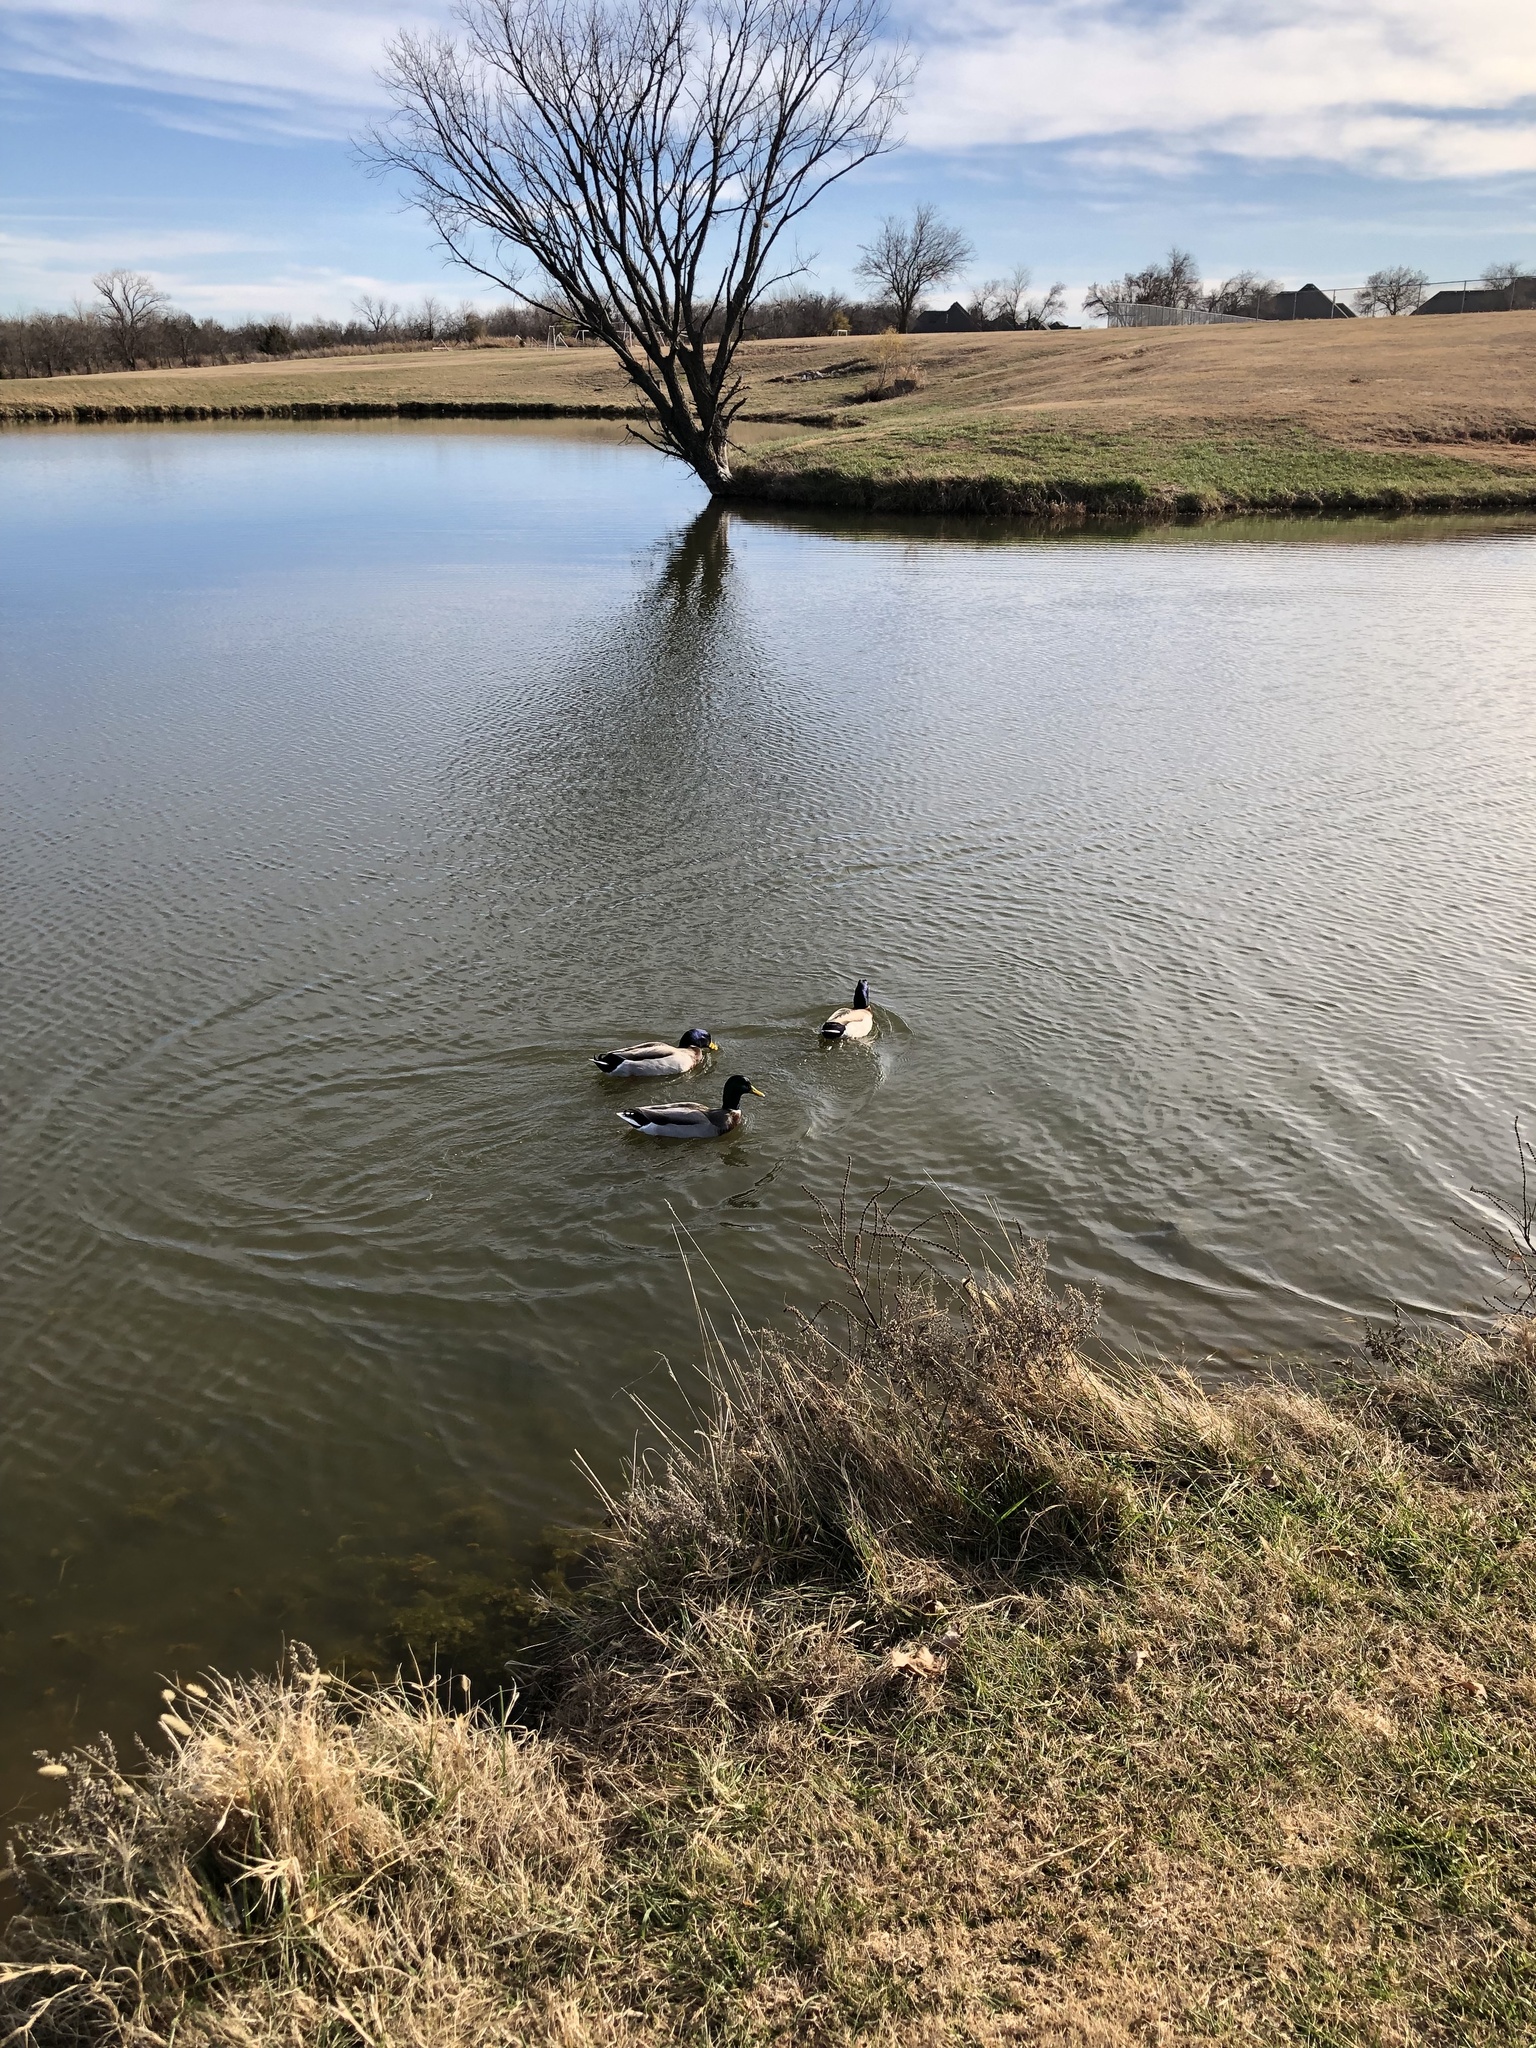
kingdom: Animalia
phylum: Chordata
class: Aves
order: Anseriformes
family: Anatidae
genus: Anas
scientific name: Anas platyrhynchos
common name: Mallard
